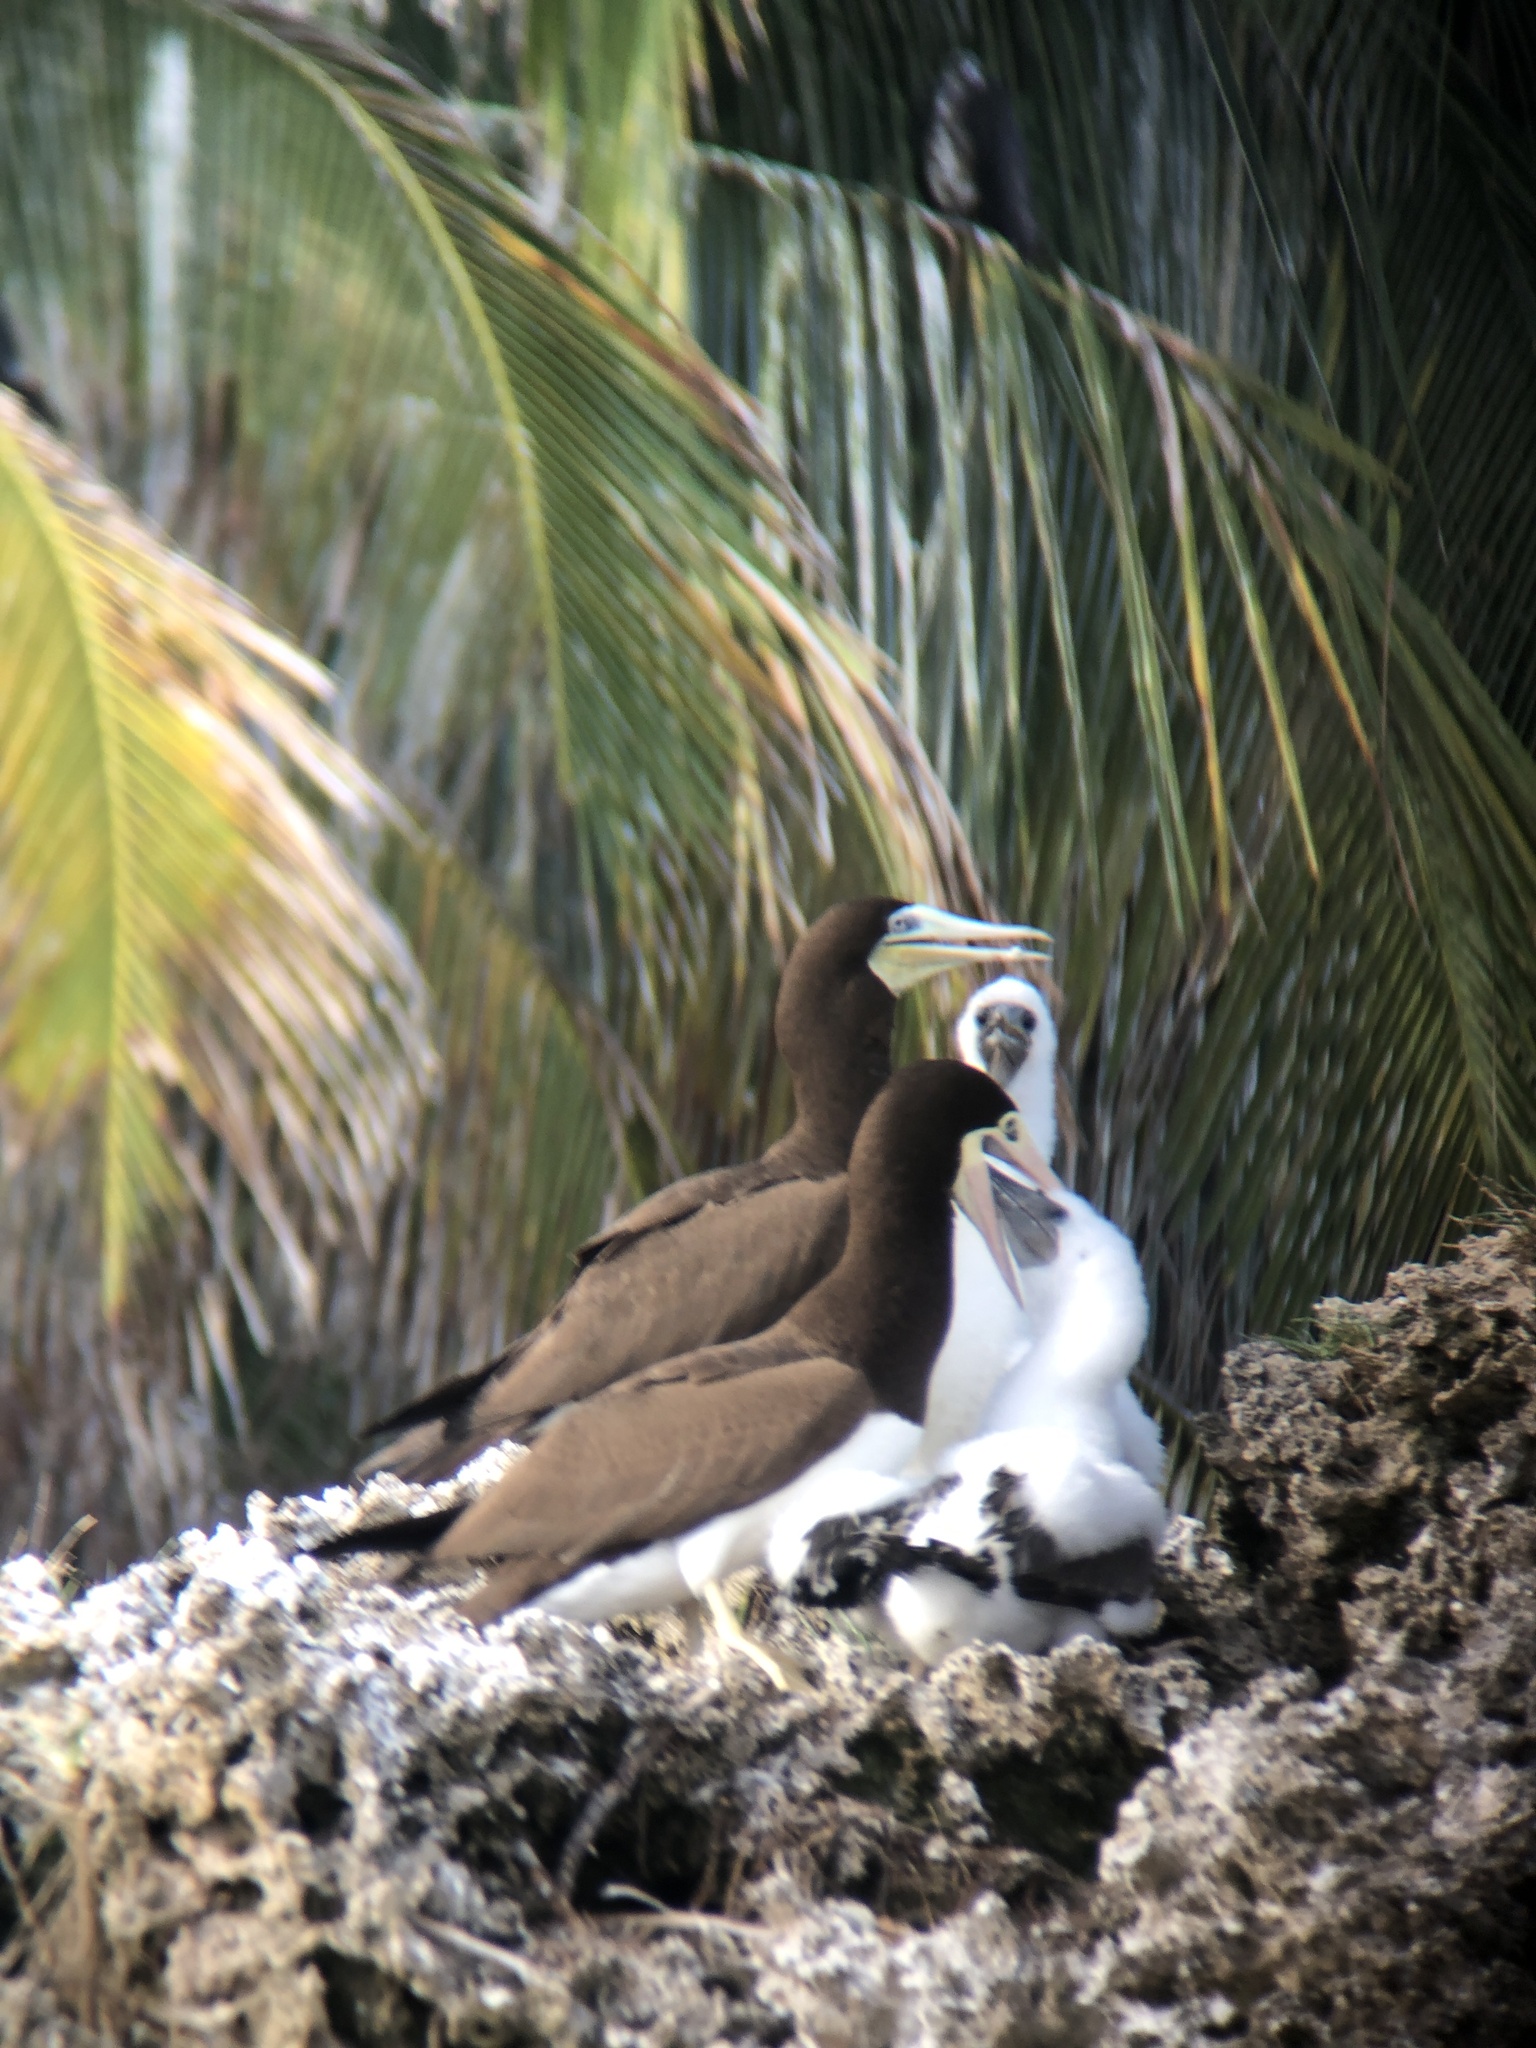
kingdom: Animalia
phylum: Chordata
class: Aves
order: Suliformes
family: Sulidae
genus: Sula
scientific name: Sula leucogaster
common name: Brown booby
